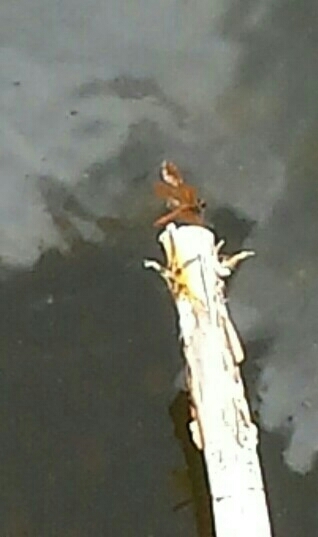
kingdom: Animalia
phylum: Arthropoda
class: Insecta
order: Odonata
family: Libellulidae
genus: Perithemis
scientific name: Perithemis domitia
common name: Slough amberwing
